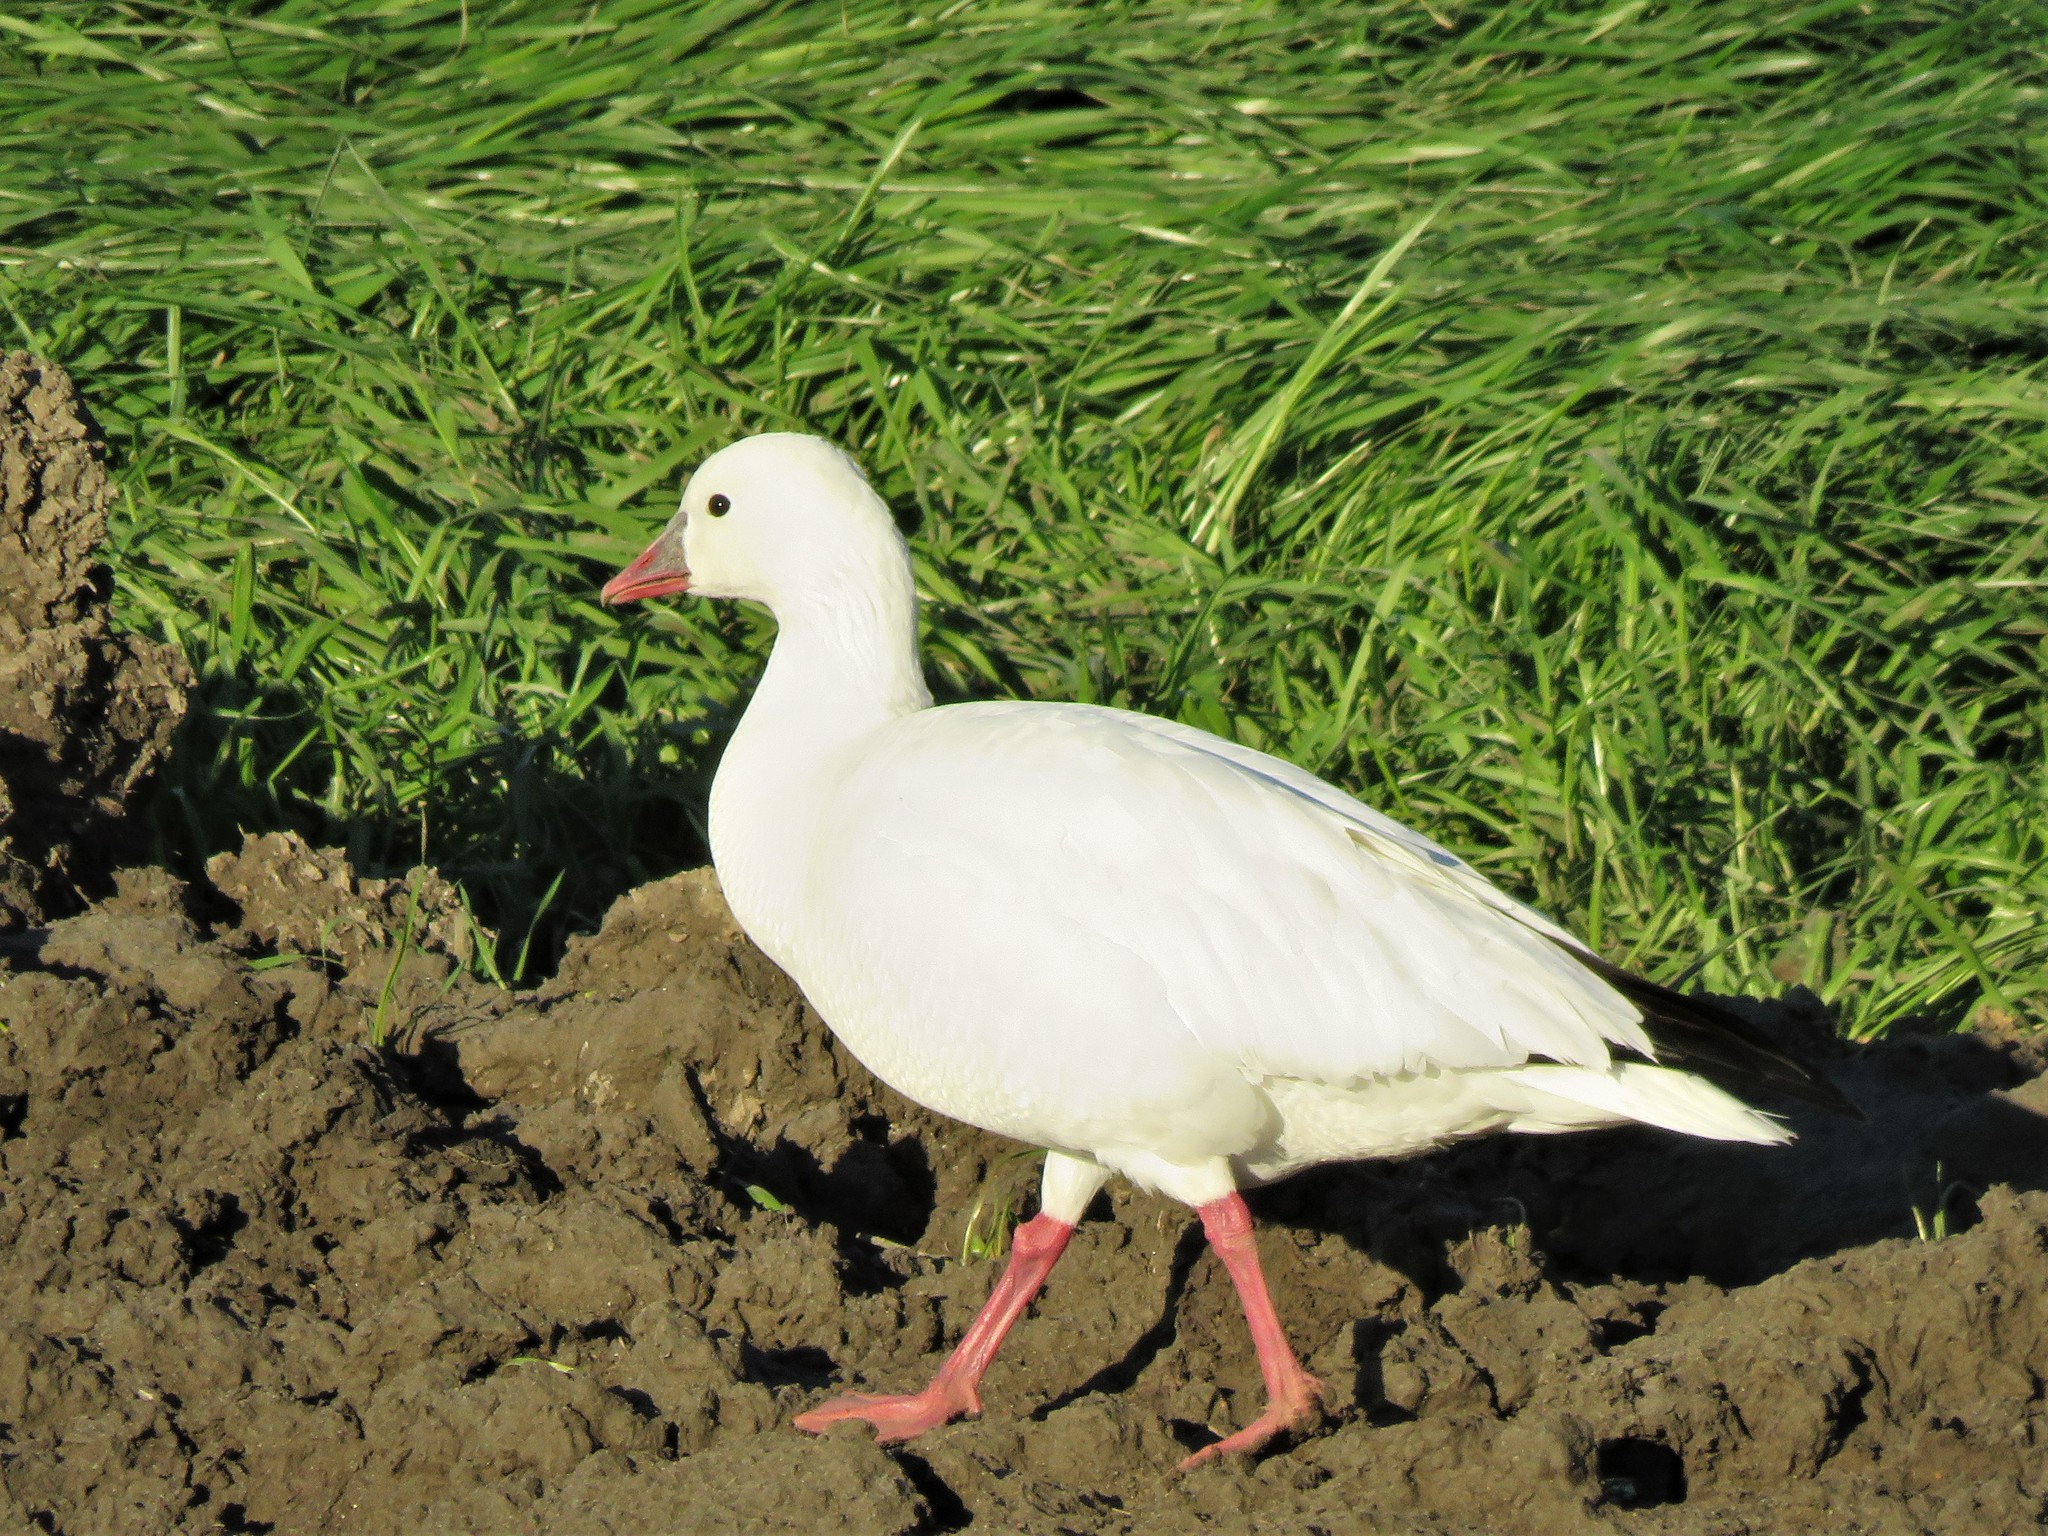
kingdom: Animalia
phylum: Chordata
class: Aves
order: Anseriformes
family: Anatidae
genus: Anser
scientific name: Anser rossii
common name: Ross's goose
